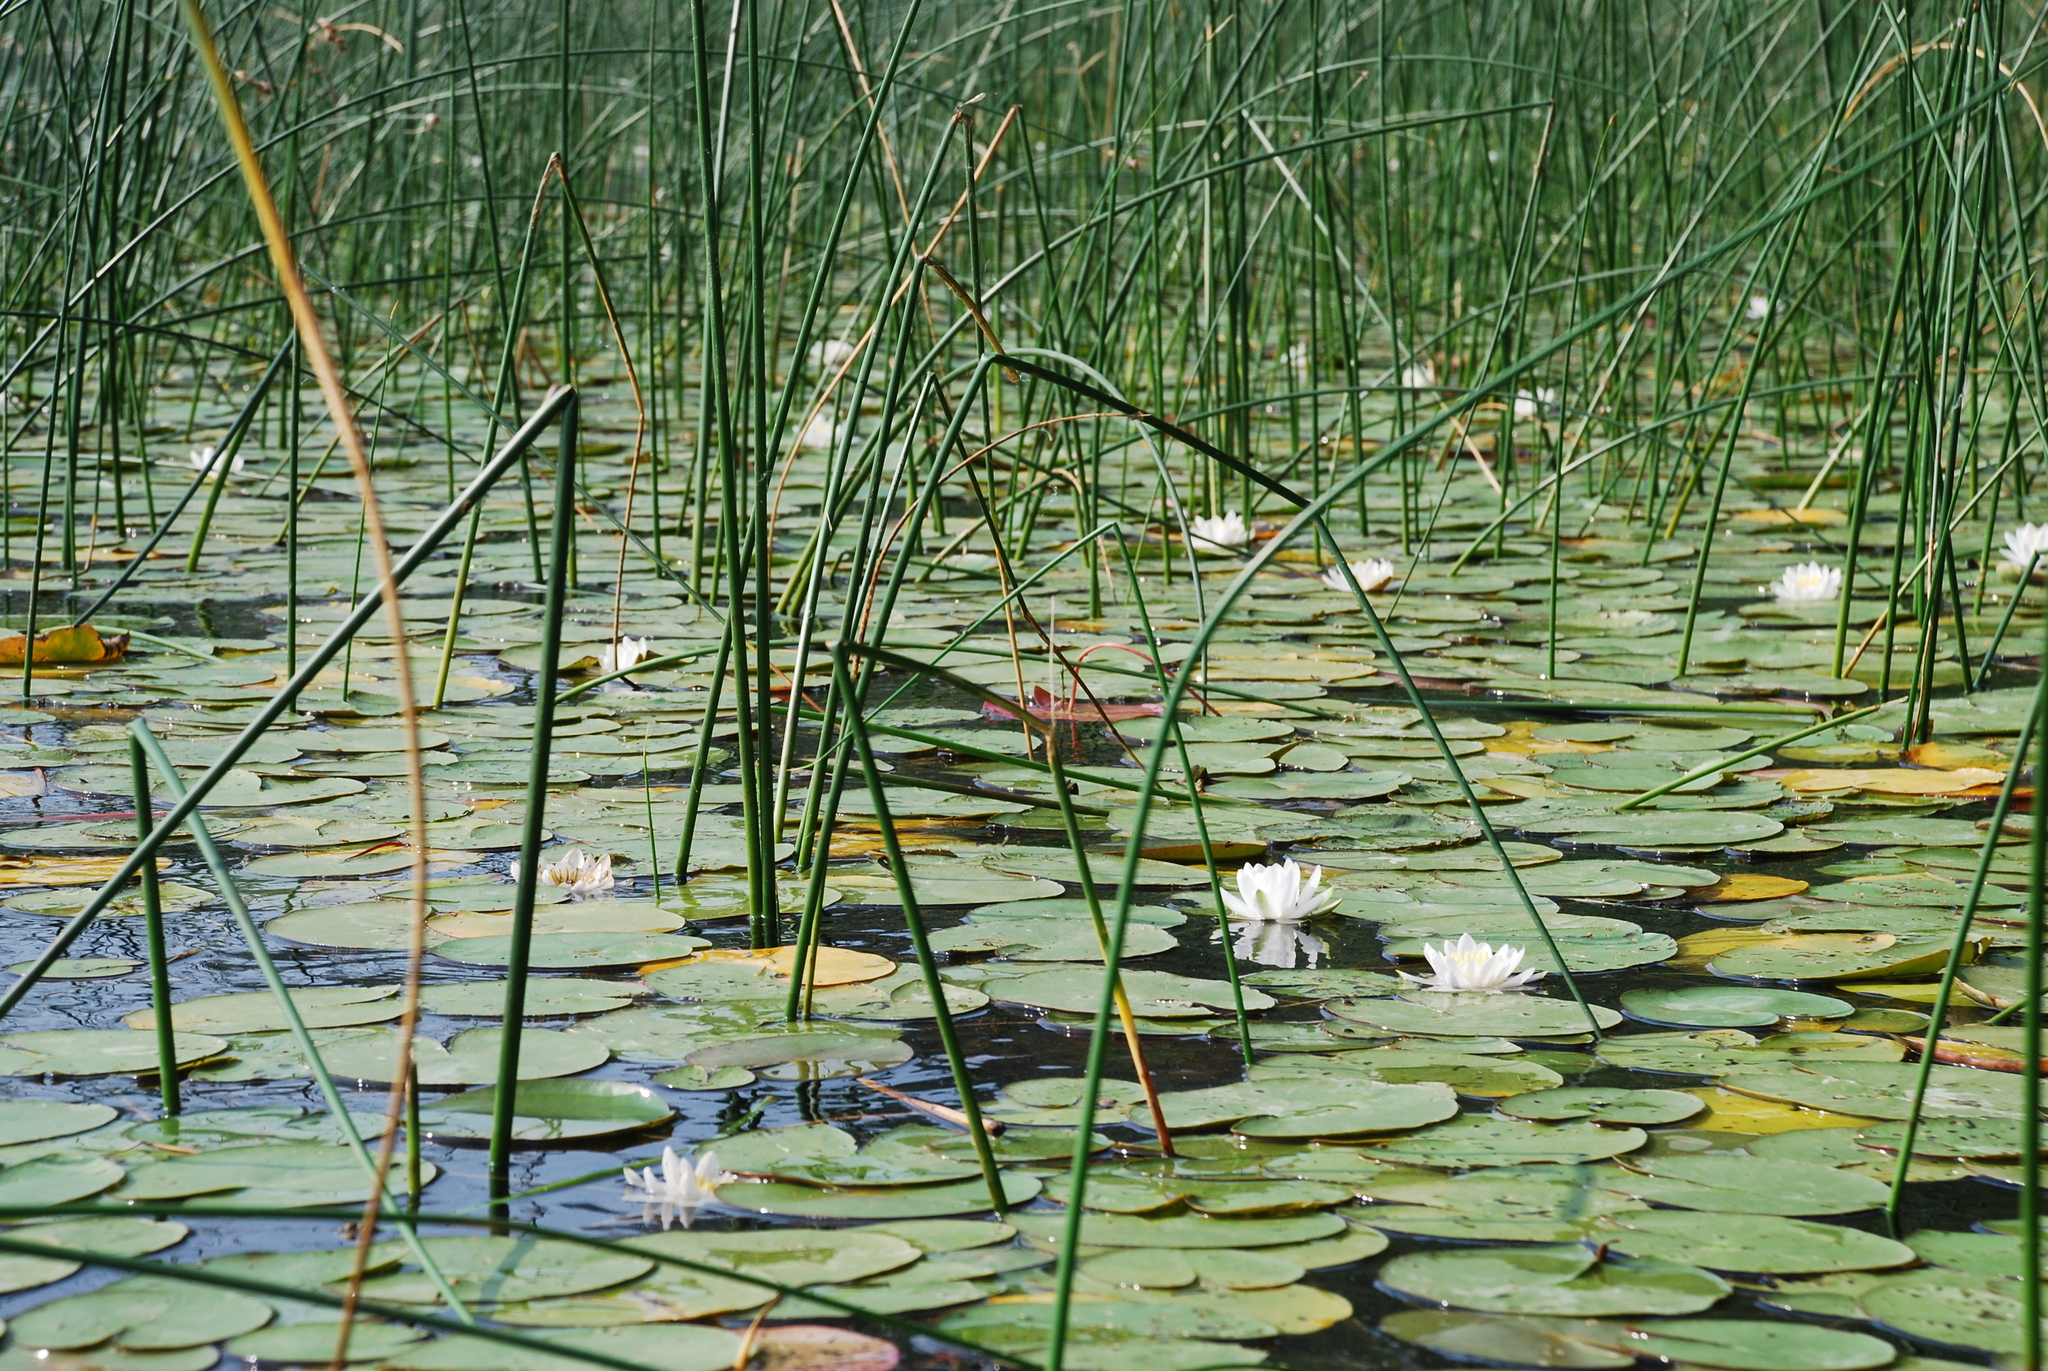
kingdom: Plantae
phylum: Tracheophyta
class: Liliopsida
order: Poales
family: Cyperaceae
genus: Schoenoplectus
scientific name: Schoenoplectus lacustris
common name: Common club-rush
